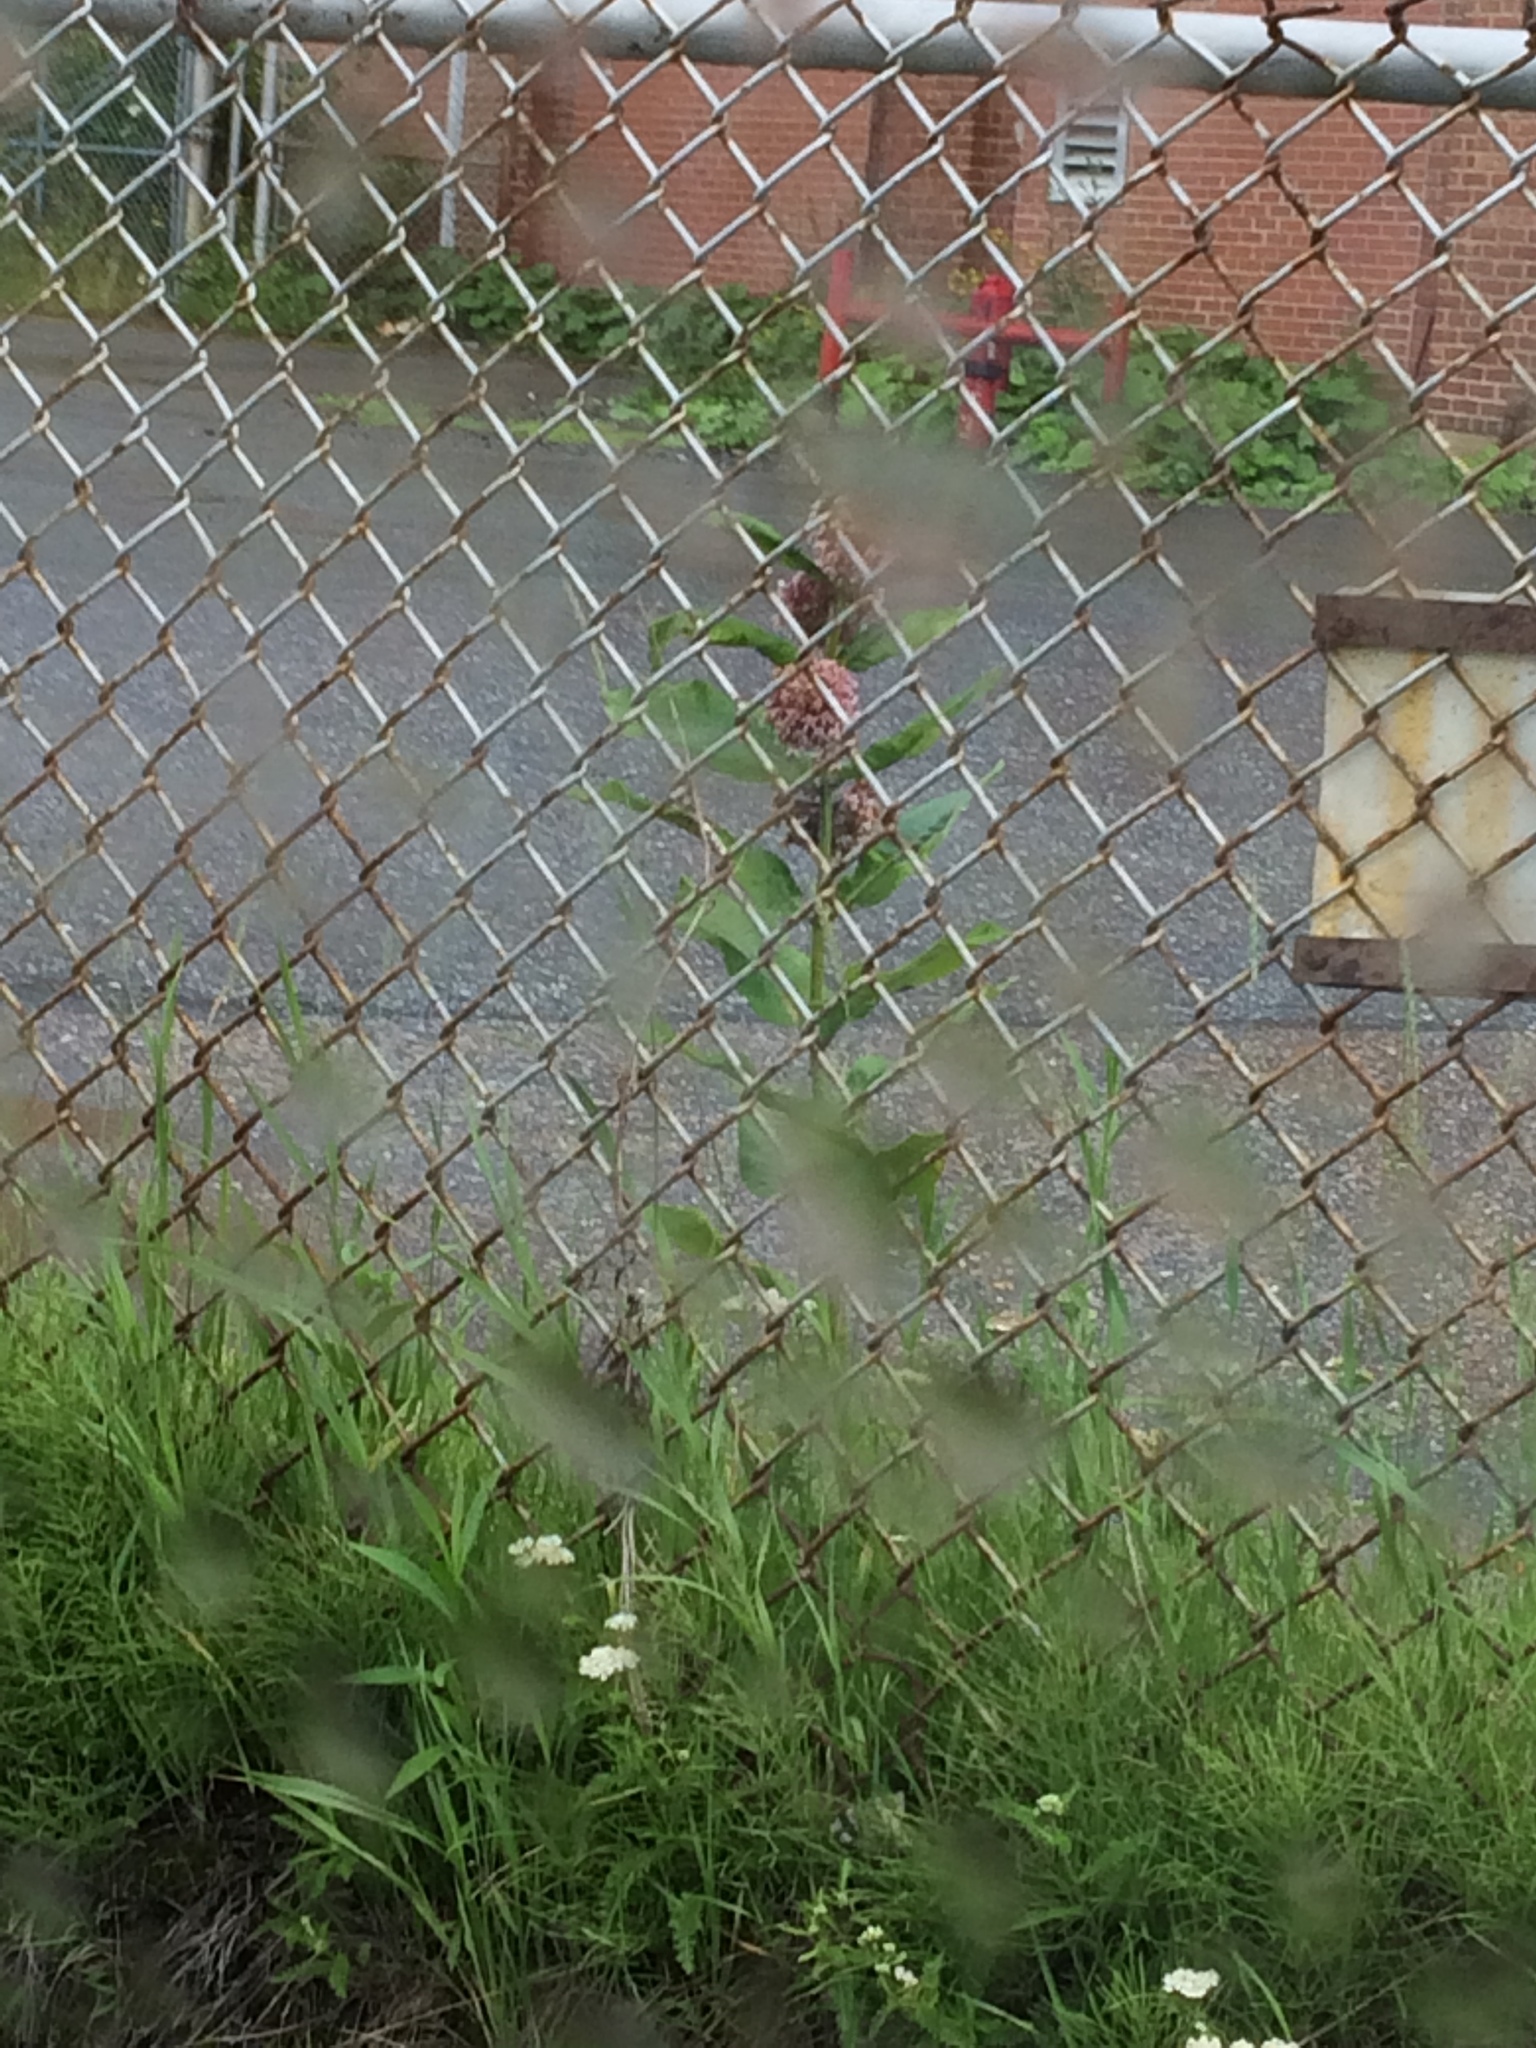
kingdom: Plantae
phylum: Tracheophyta
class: Magnoliopsida
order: Gentianales
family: Apocynaceae
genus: Asclepias
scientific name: Asclepias syriaca
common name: Common milkweed
